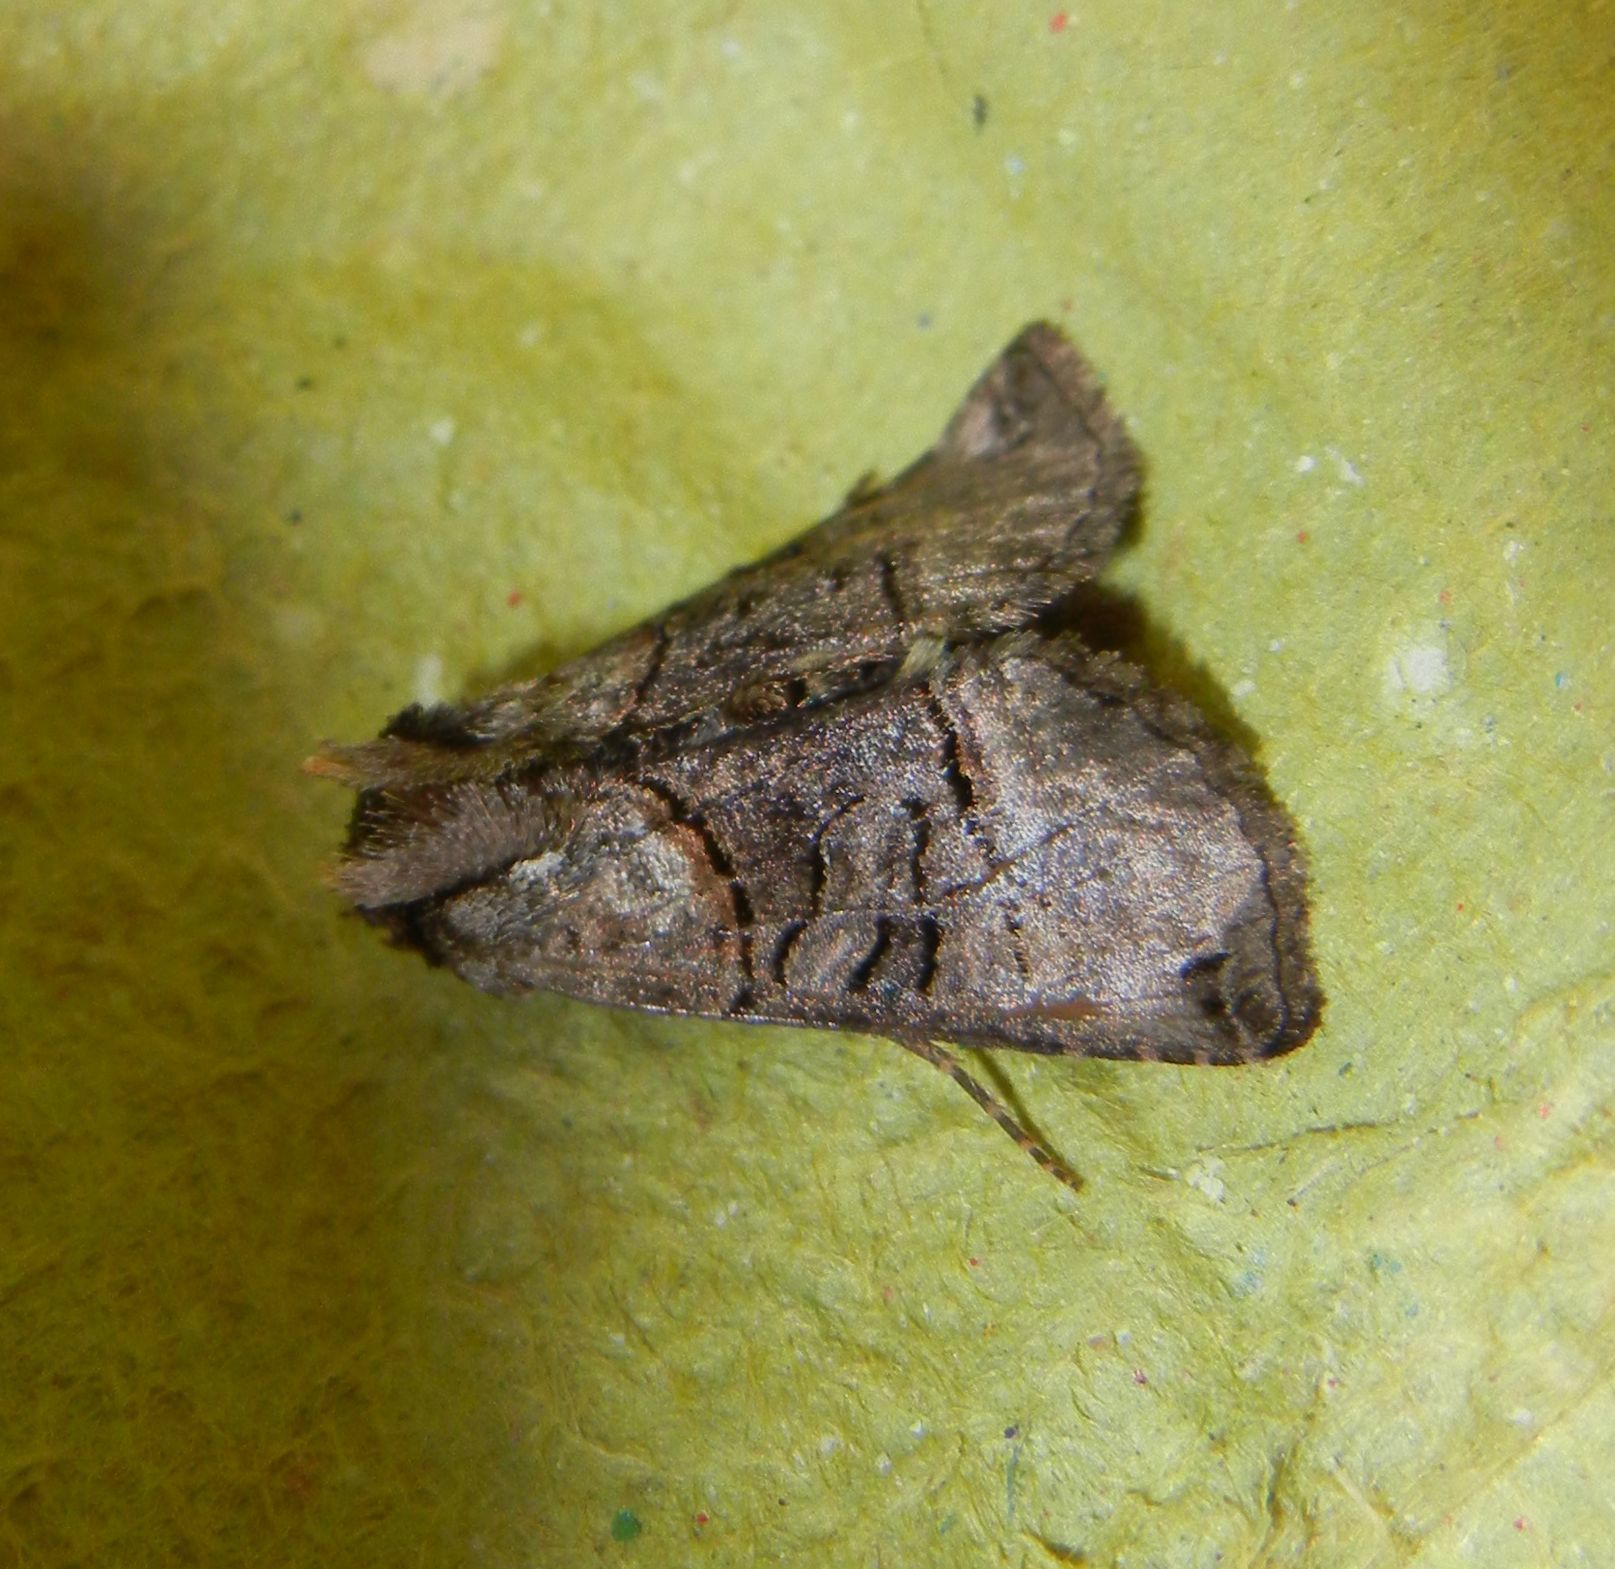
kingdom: Animalia
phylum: Arthropoda
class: Insecta
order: Lepidoptera
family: Noctuidae
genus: Abrostola
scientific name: Abrostola tripartita
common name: Spectacle
